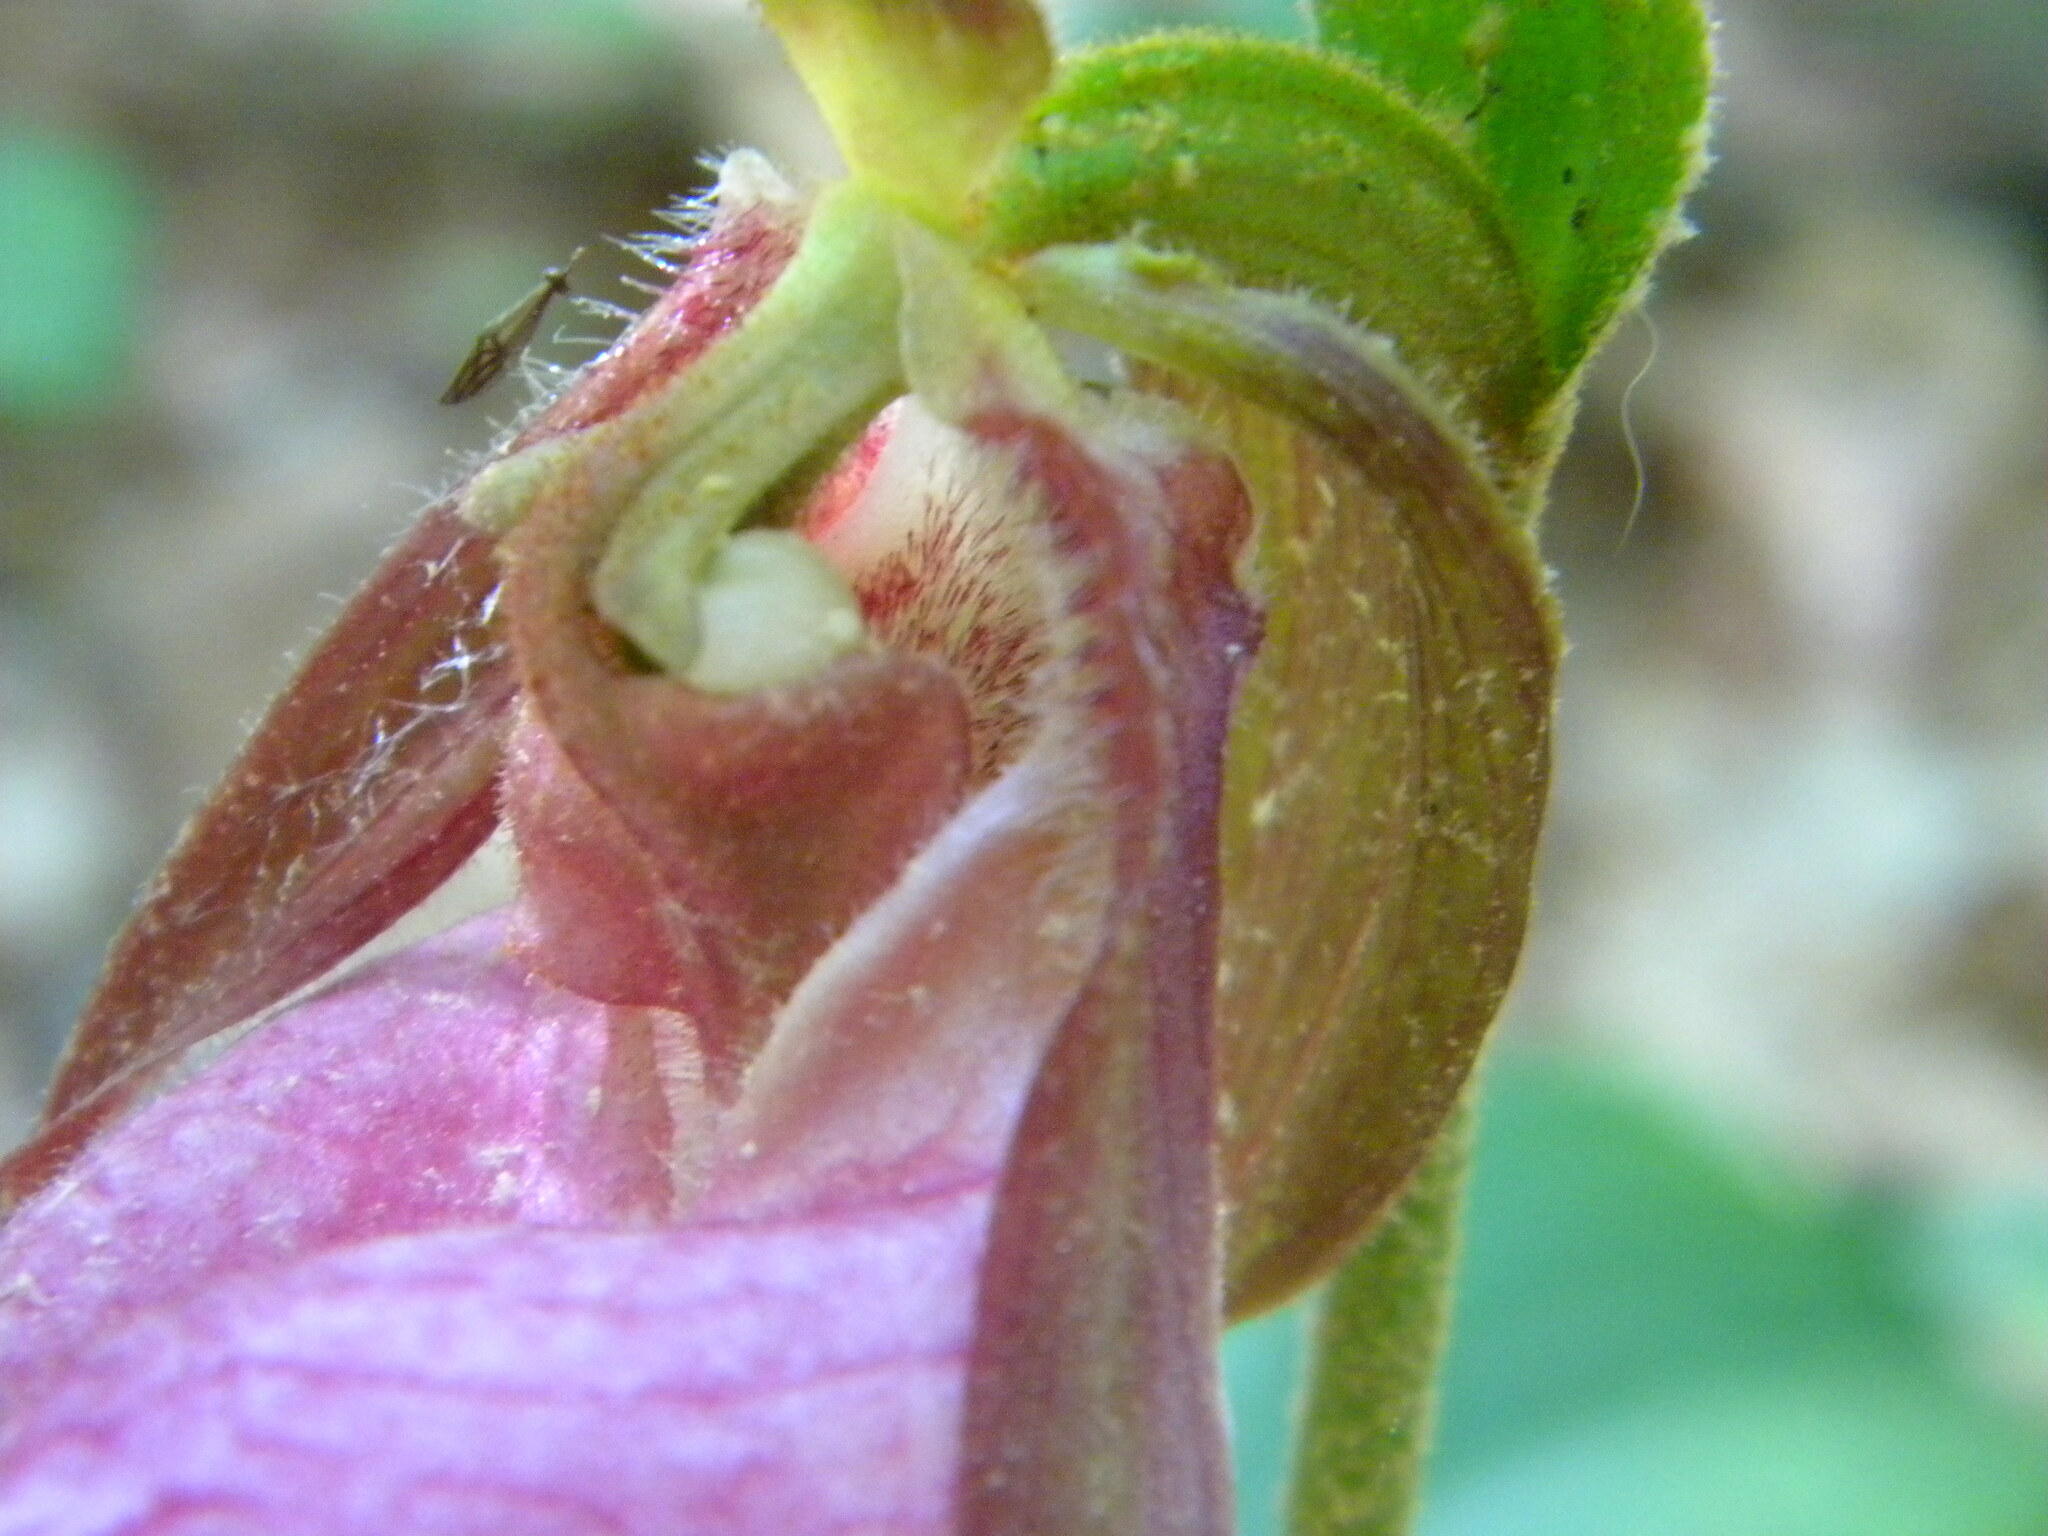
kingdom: Plantae
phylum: Tracheophyta
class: Liliopsida
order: Asparagales
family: Orchidaceae
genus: Cypripedium
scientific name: Cypripedium acaule
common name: Pink lady's-slipper
